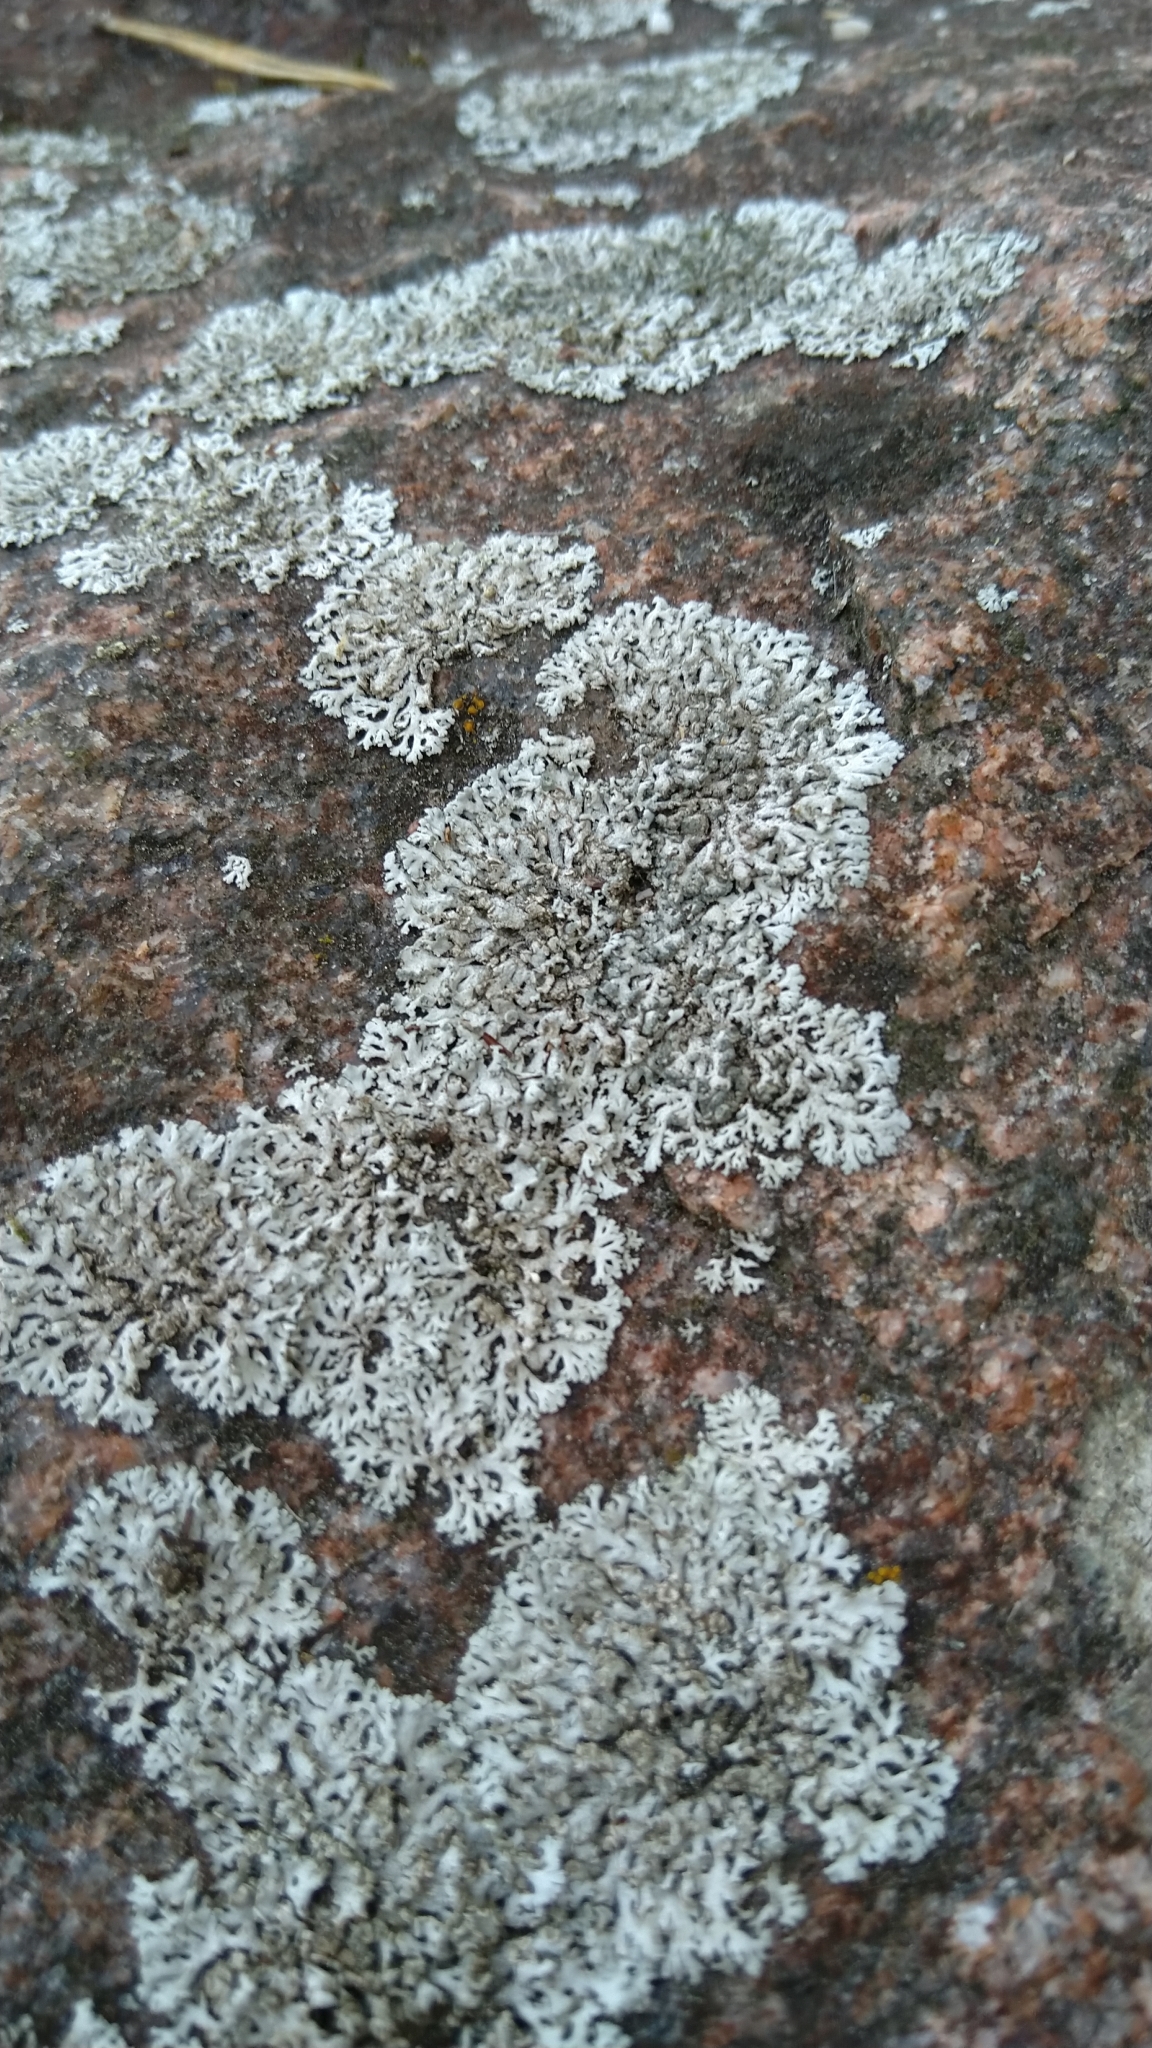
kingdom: Fungi
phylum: Ascomycota
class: Lecanoromycetes
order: Caliciales
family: Physciaceae
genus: Physcia
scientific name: Physcia caesia
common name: Blue-gray rosette lichen
